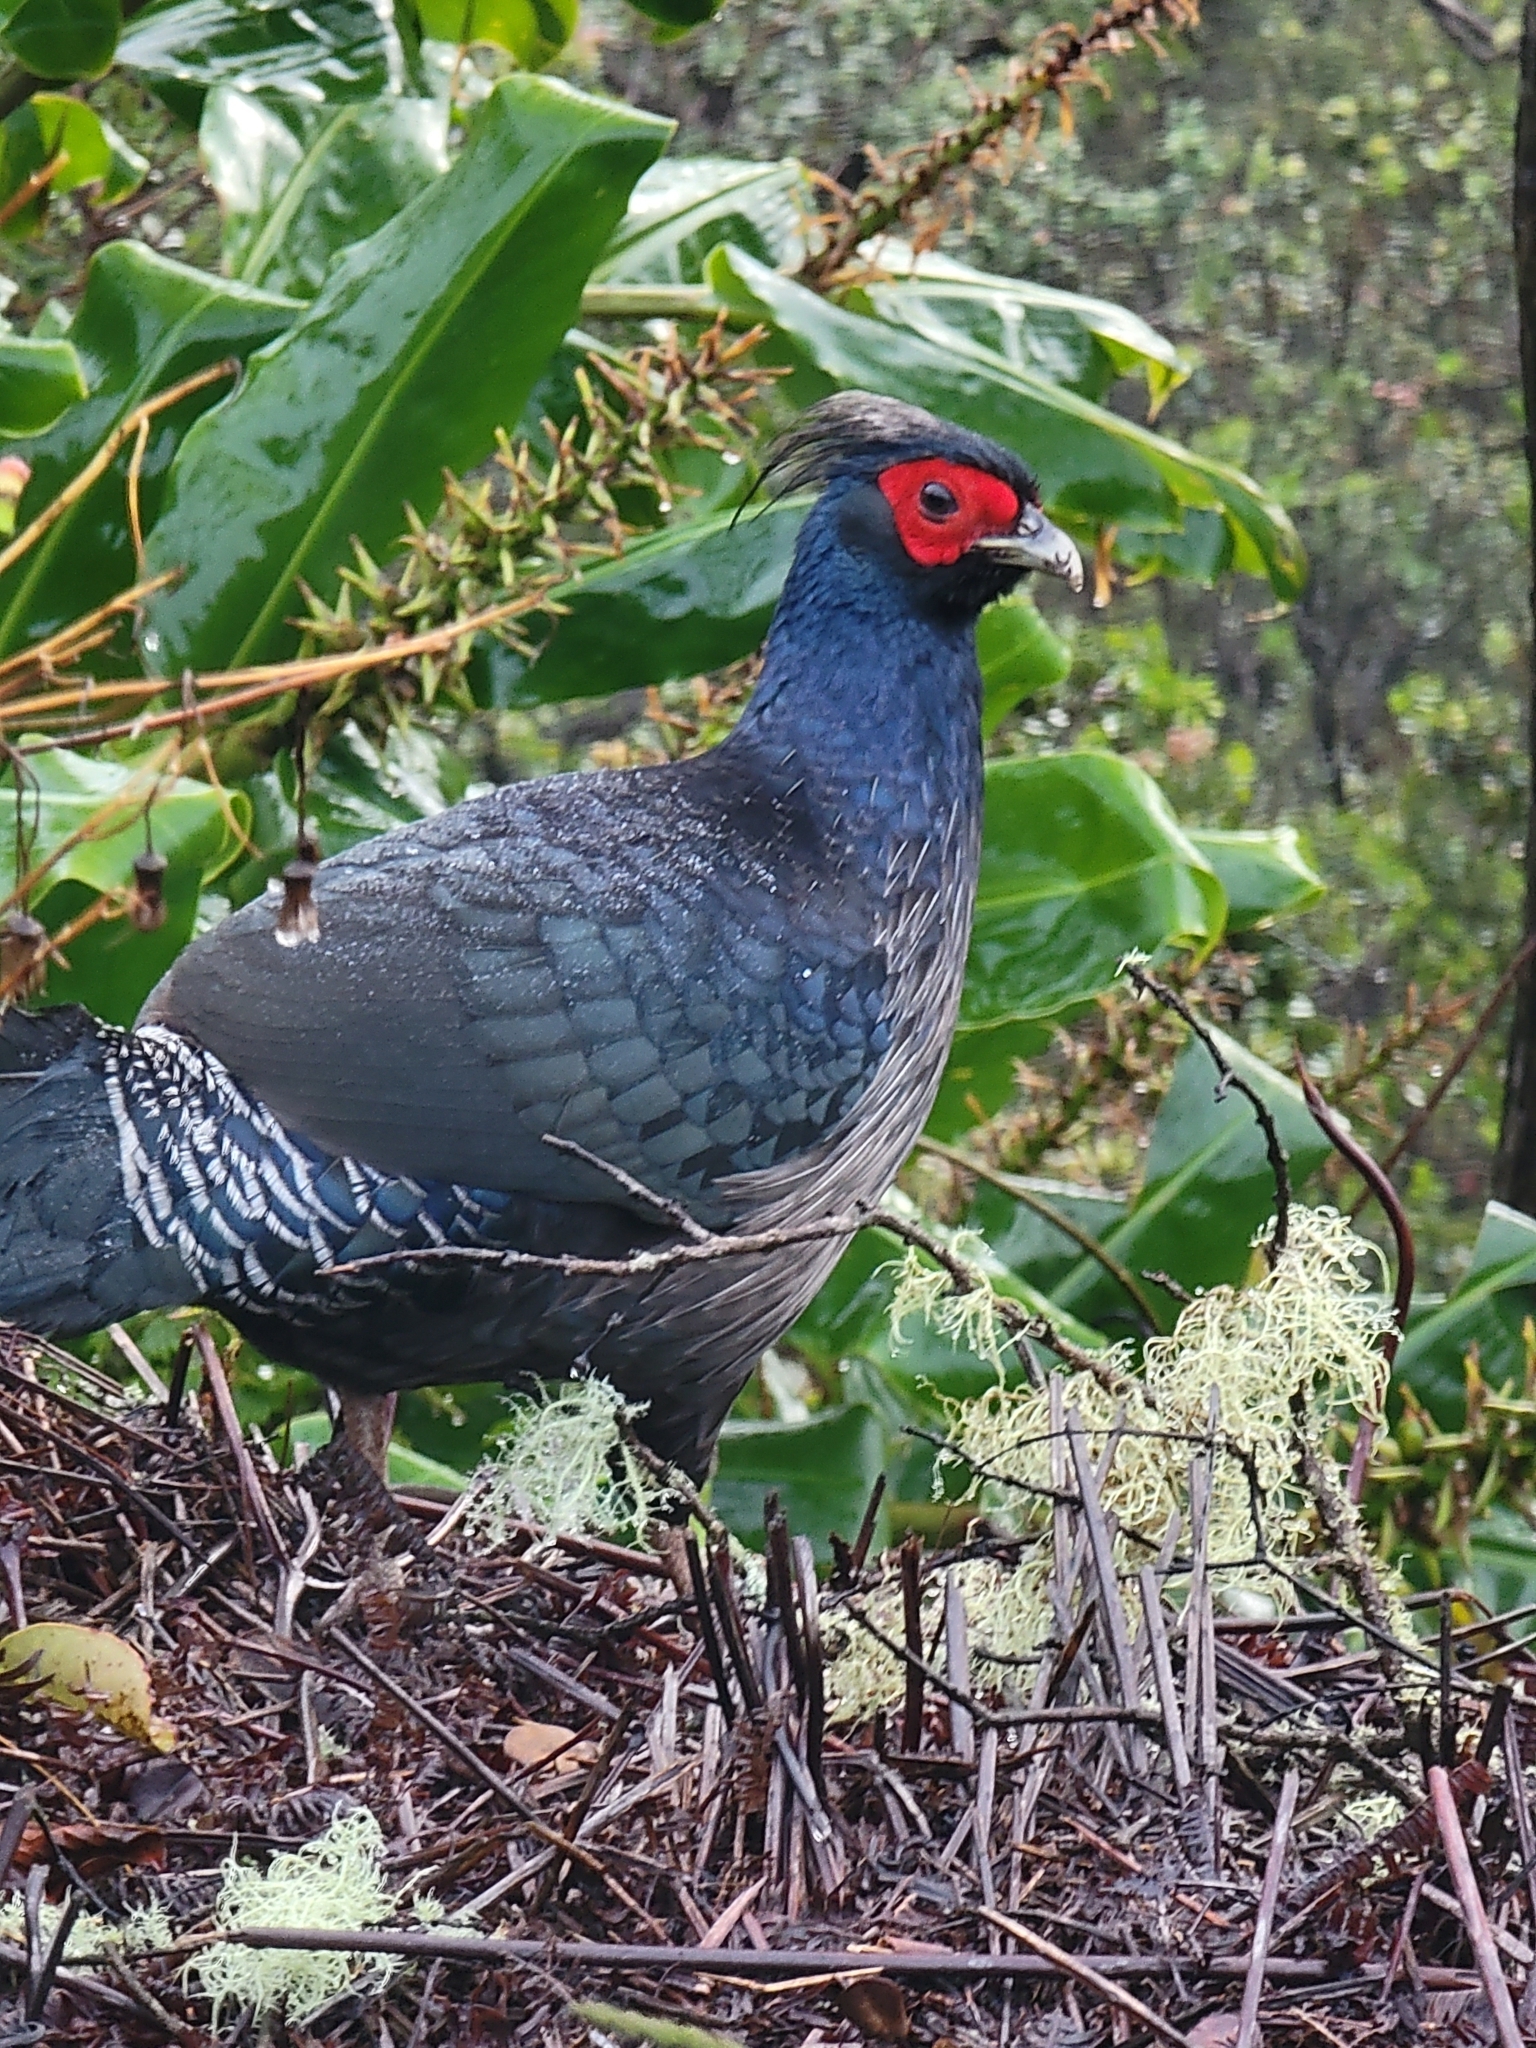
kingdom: Animalia
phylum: Chordata
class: Aves
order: Galliformes
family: Phasianidae
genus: Lophura
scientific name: Lophura leucomelanos
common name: Kalij pheasant
